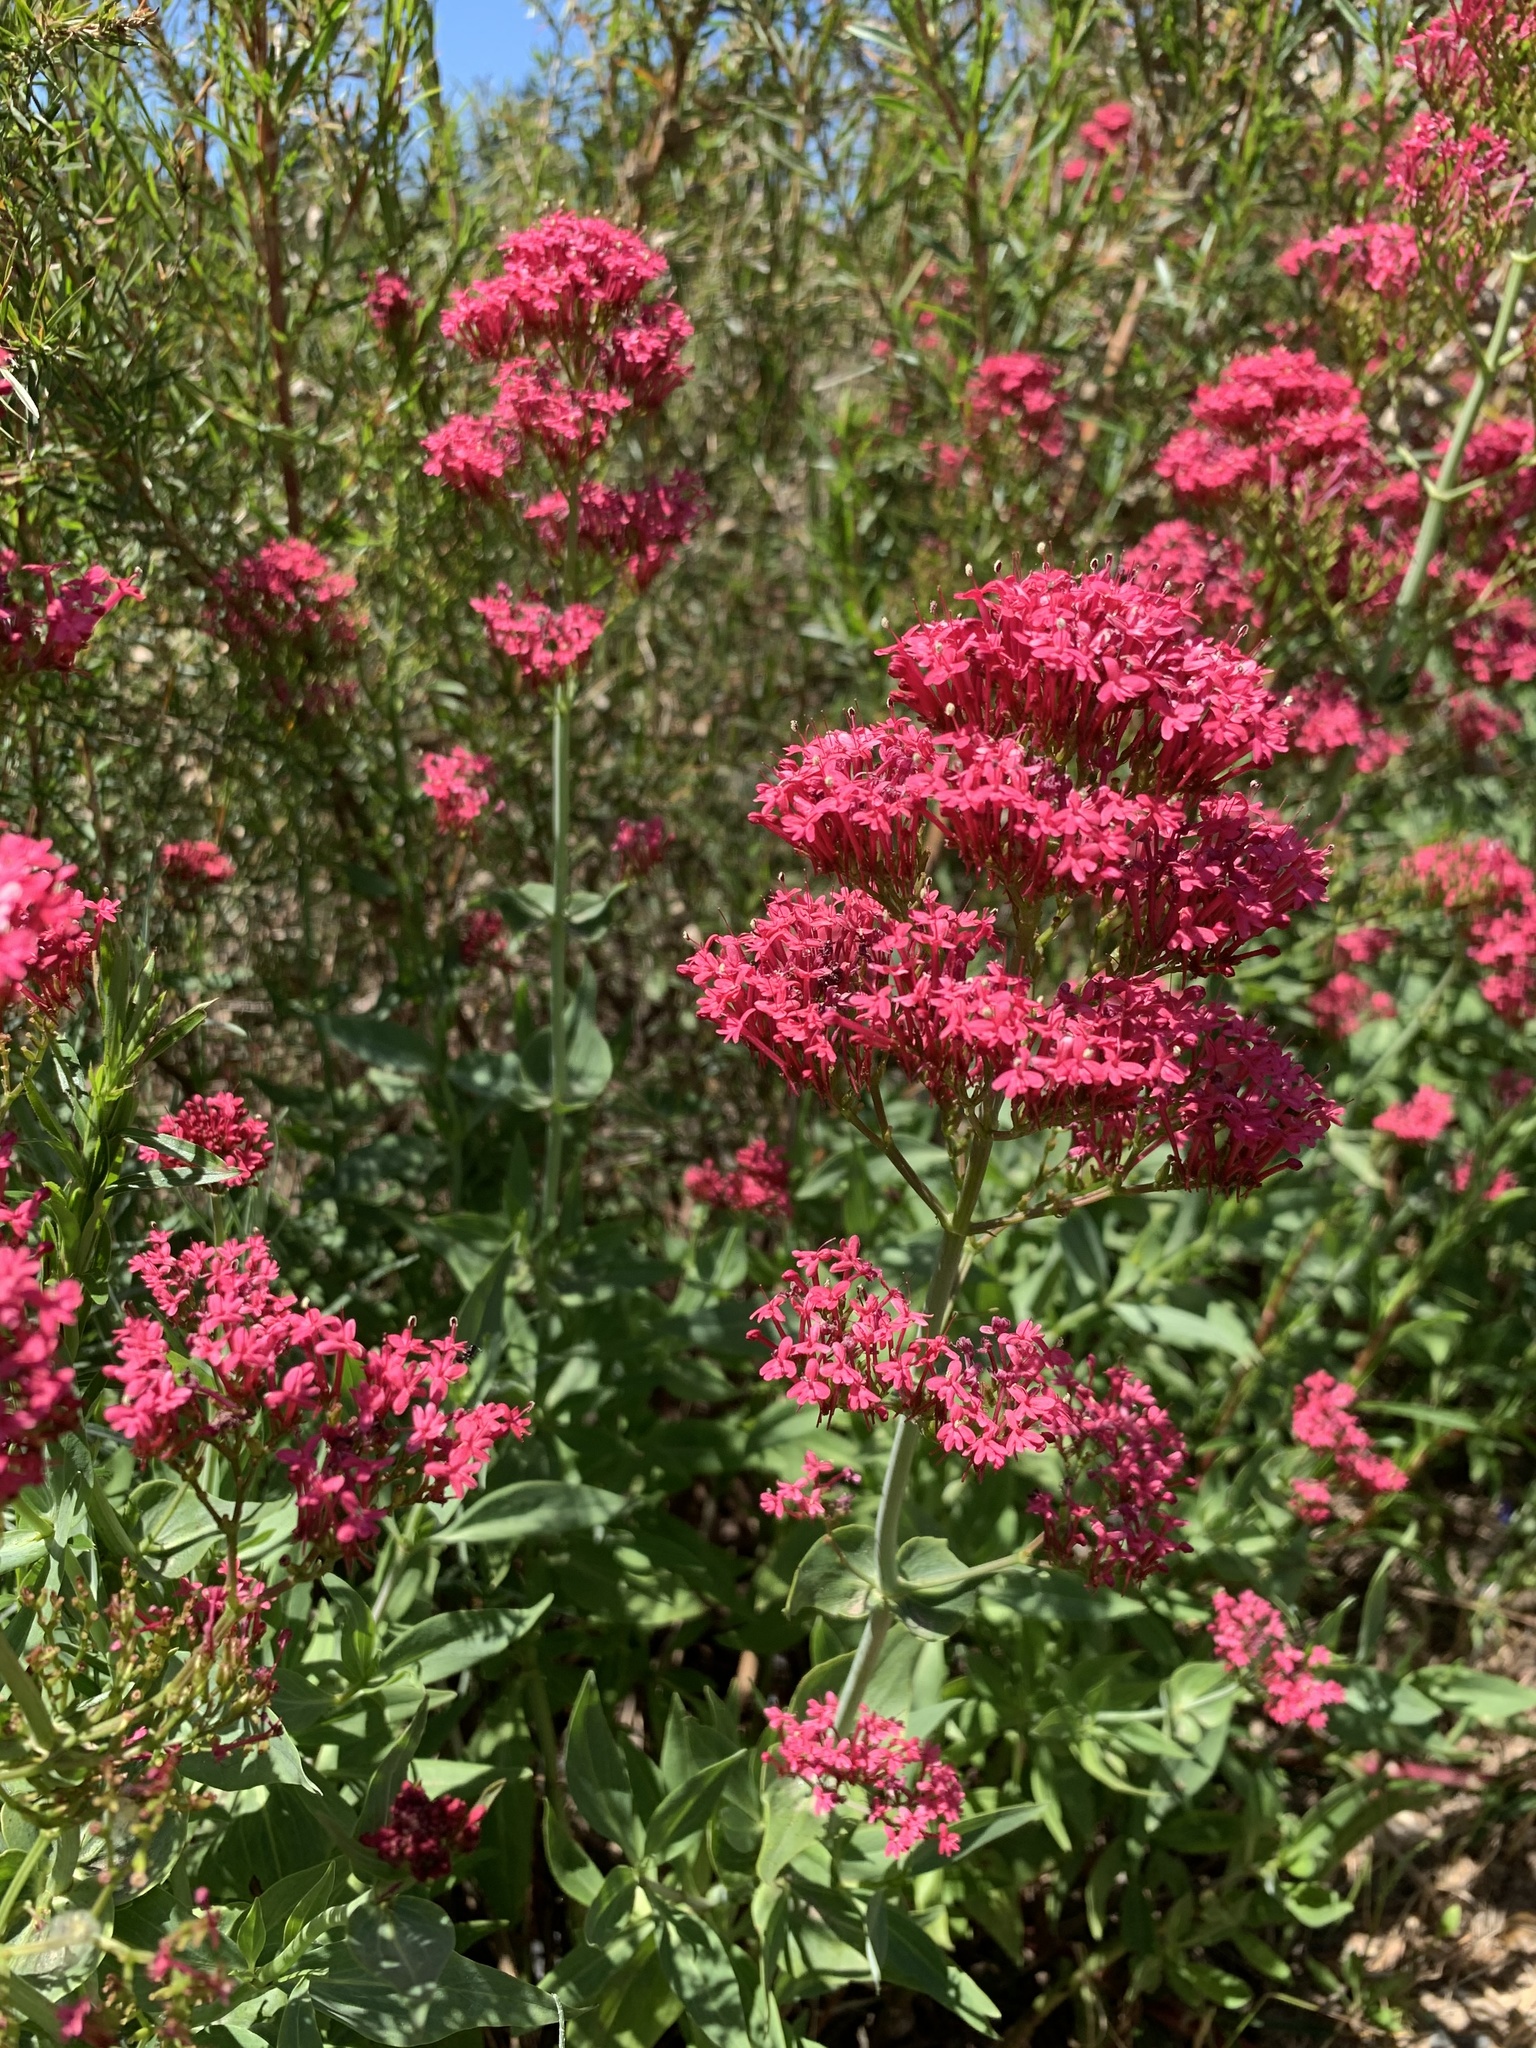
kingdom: Plantae
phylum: Tracheophyta
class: Magnoliopsida
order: Dipsacales
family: Caprifoliaceae
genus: Centranthus
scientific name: Centranthus ruber
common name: Red valerian
